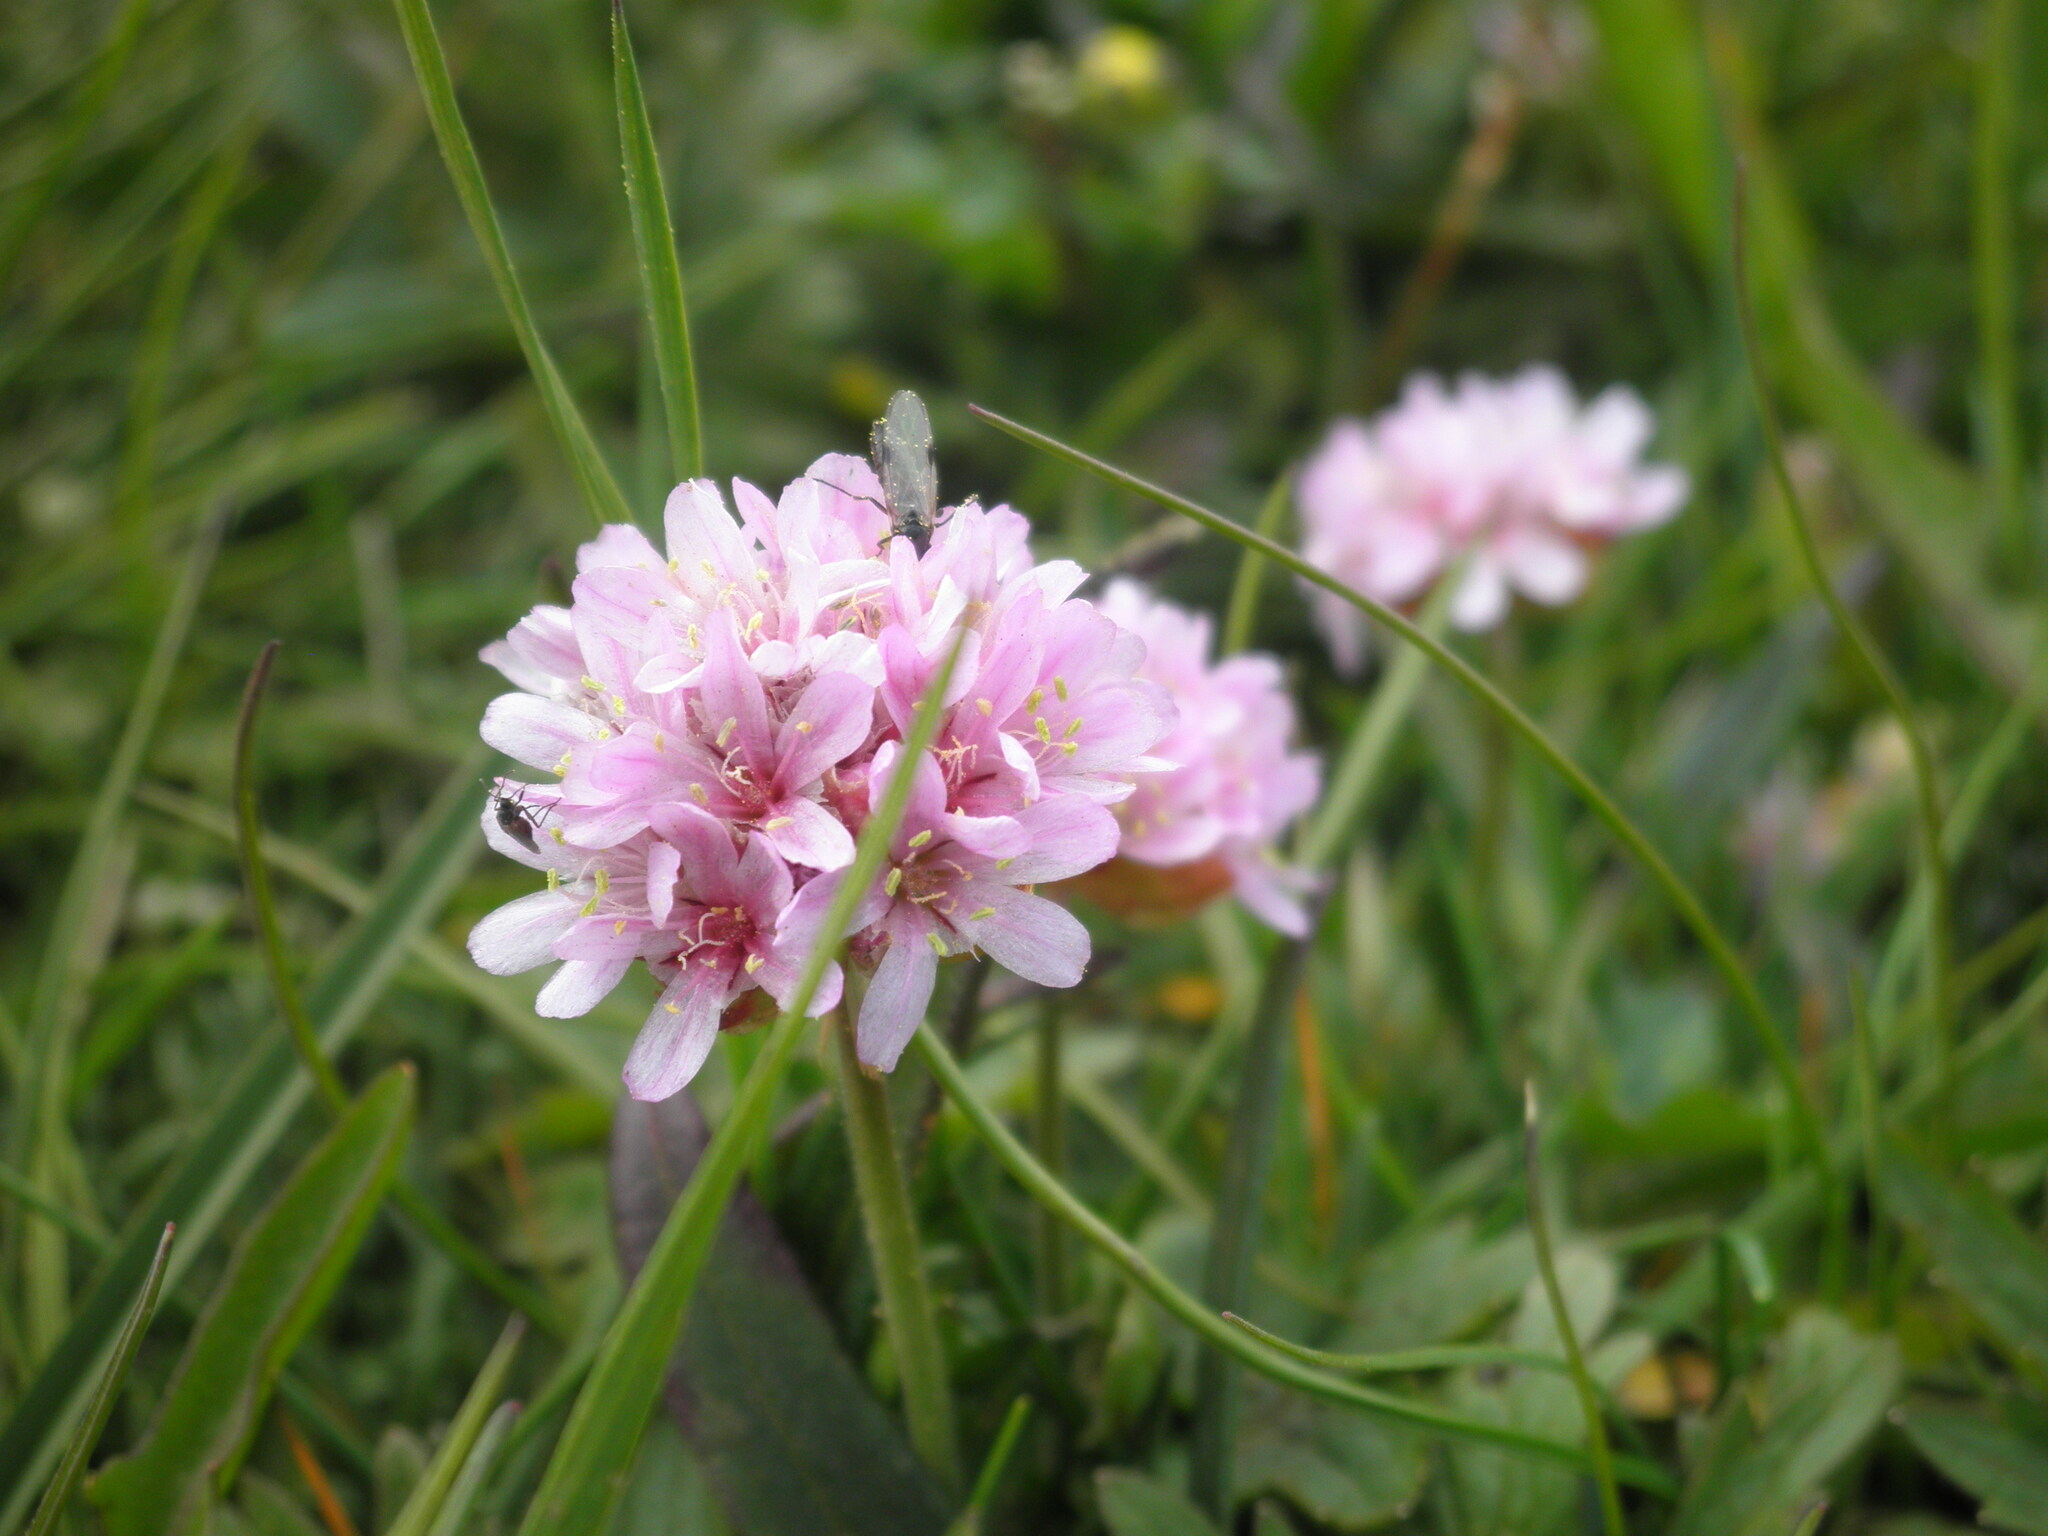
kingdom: Plantae
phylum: Tracheophyta
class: Magnoliopsida
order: Caryophyllales
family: Plumbaginaceae
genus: Armeria
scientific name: Armeria maritima
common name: Thrift
